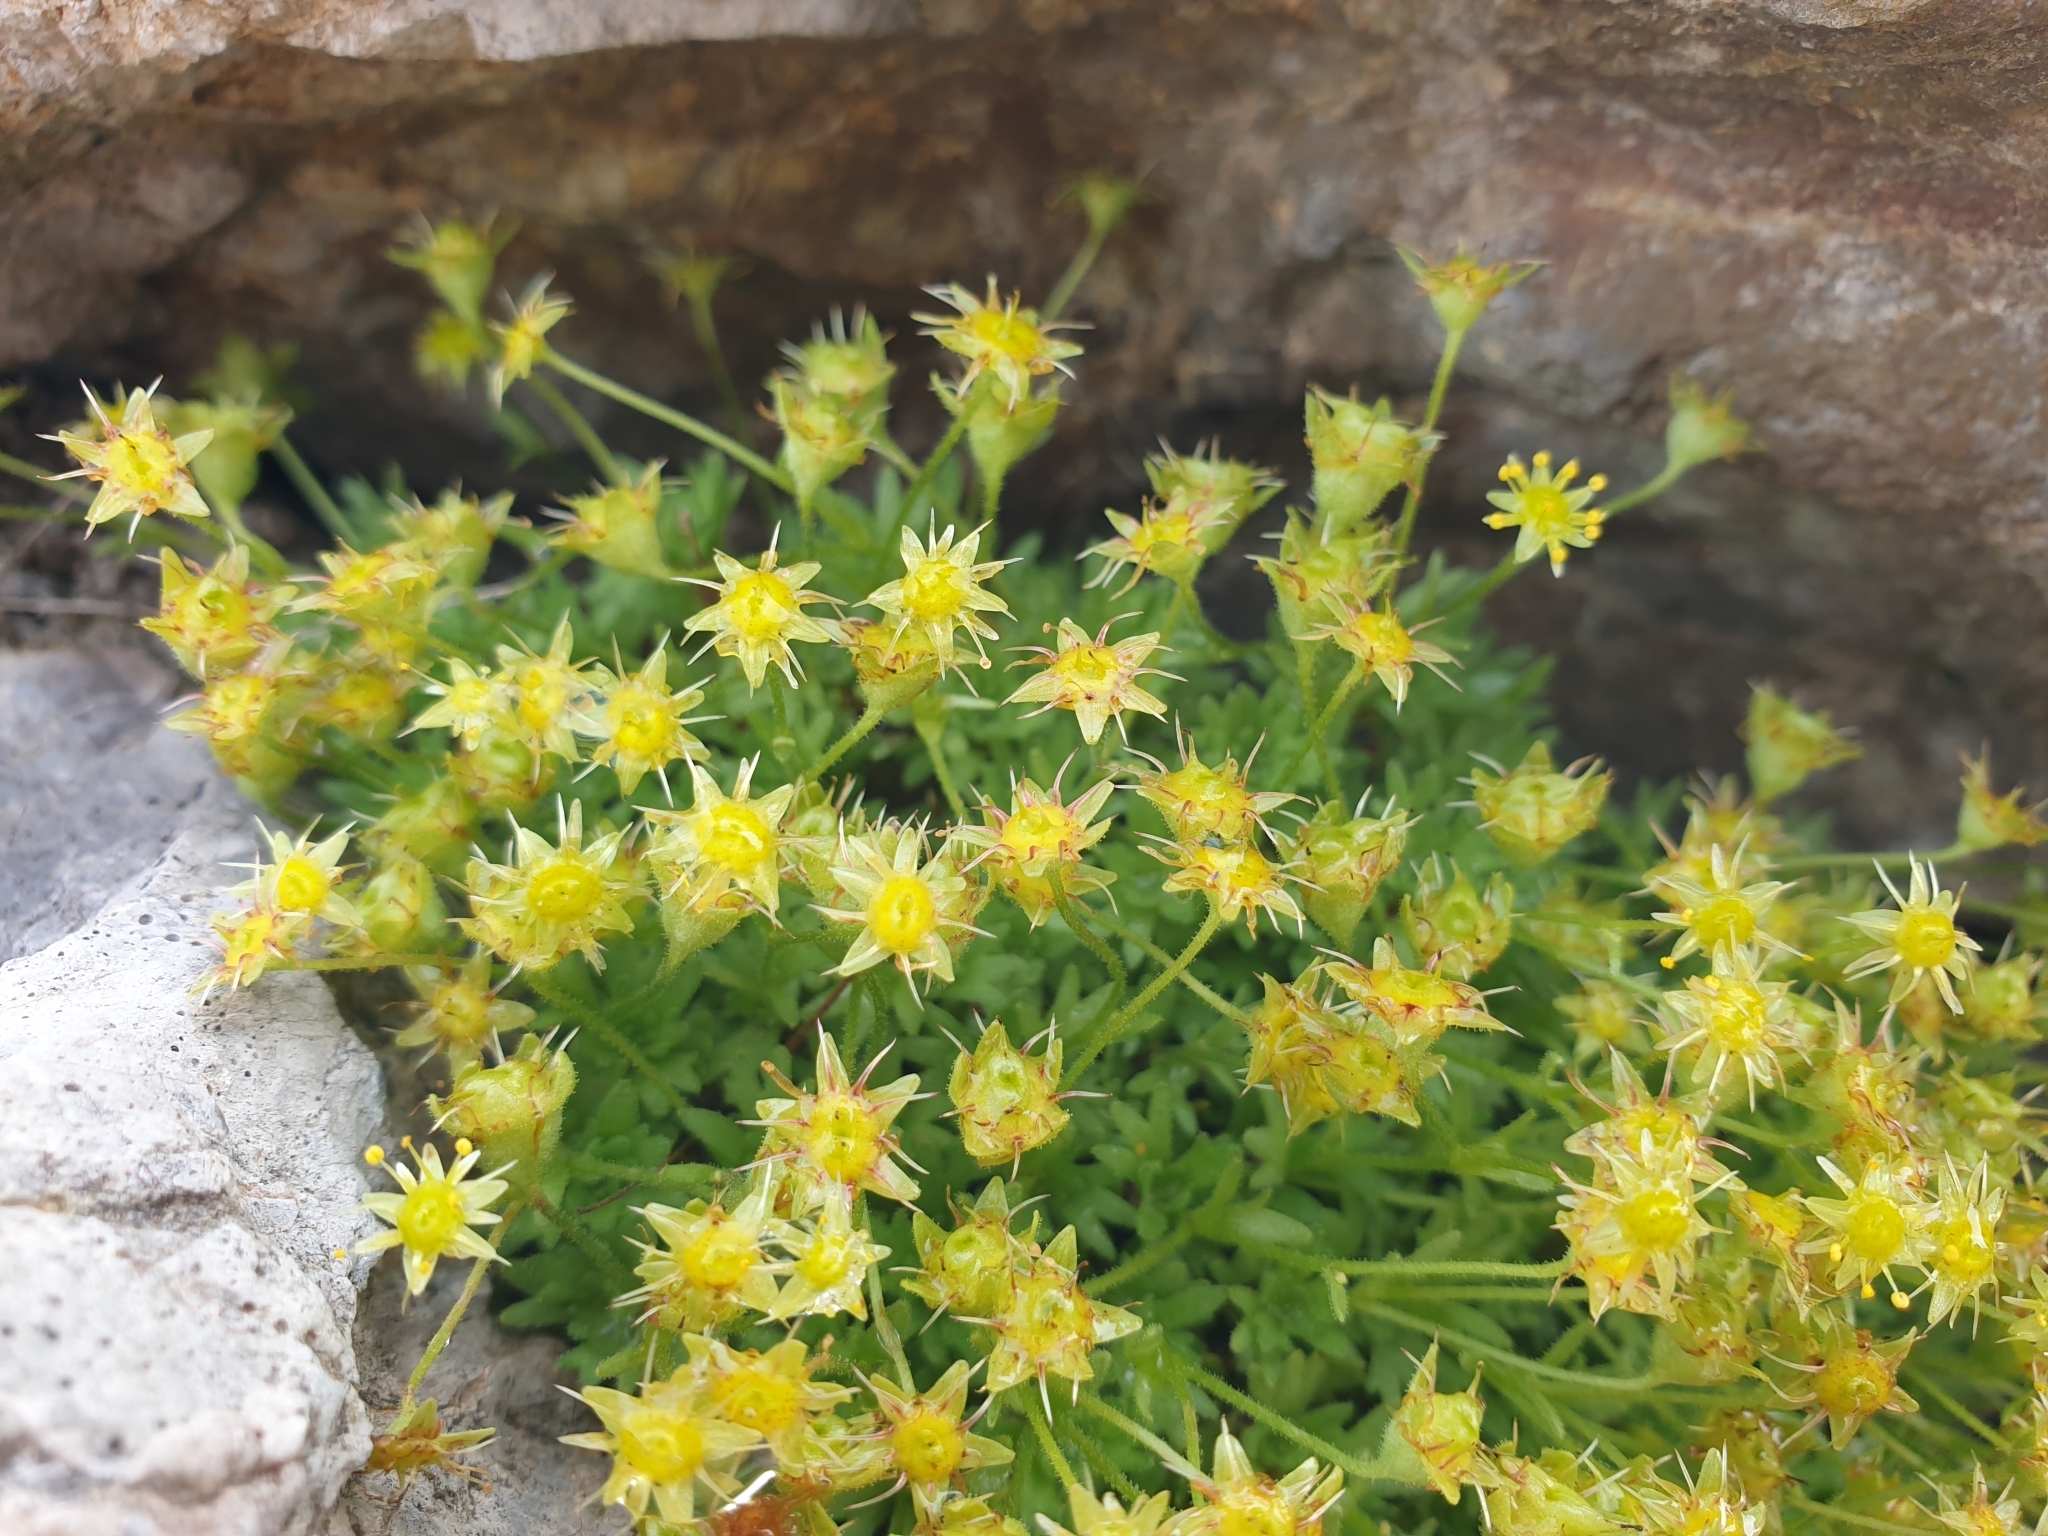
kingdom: Plantae
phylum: Tracheophyta
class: Magnoliopsida
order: Saxifragales
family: Saxifragaceae
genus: Saxifraga
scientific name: Saxifraga aphylla
